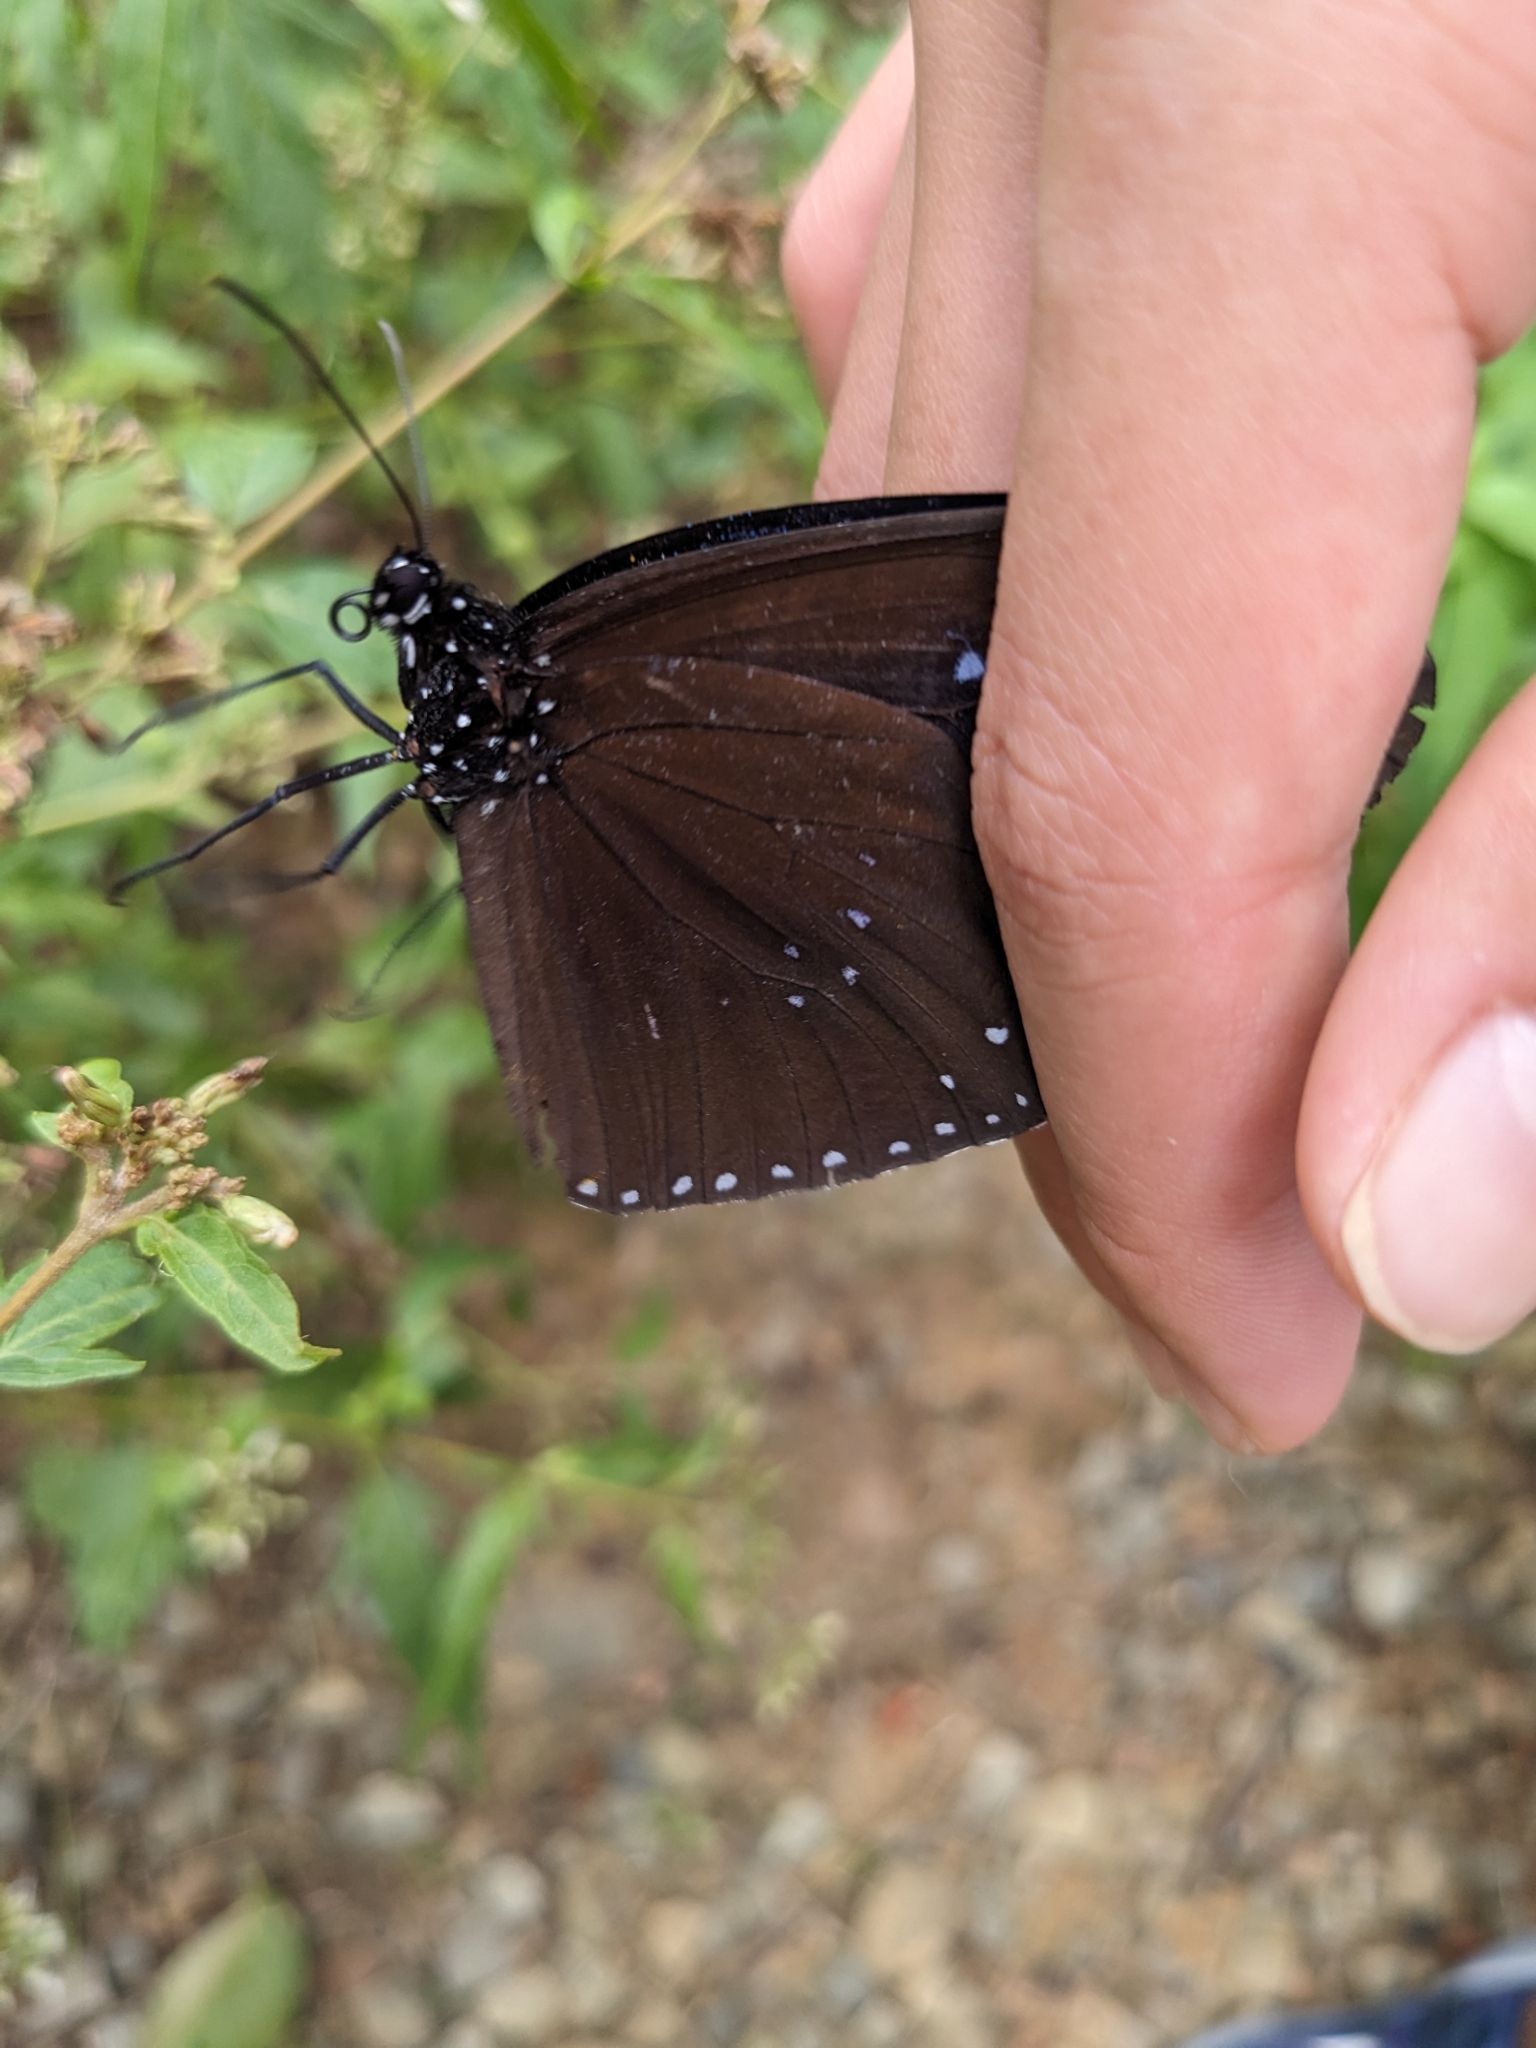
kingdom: Animalia
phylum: Arthropoda
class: Insecta
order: Lepidoptera
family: Nymphalidae
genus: Euploea
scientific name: Euploea sylvester
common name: Double-branded crow butterfly
